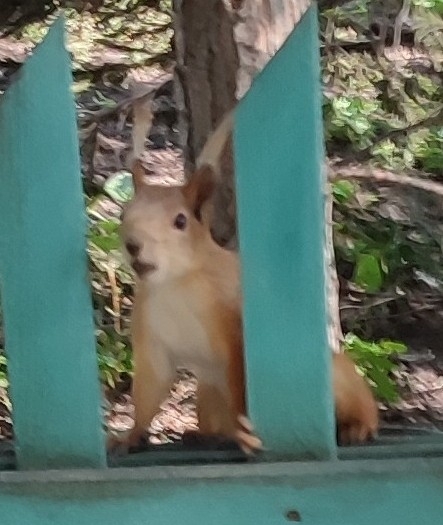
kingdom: Animalia
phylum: Chordata
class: Mammalia
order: Rodentia
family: Sciuridae
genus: Sciurus
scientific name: Sciurus vulgaris
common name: Eurasian red squirrel
